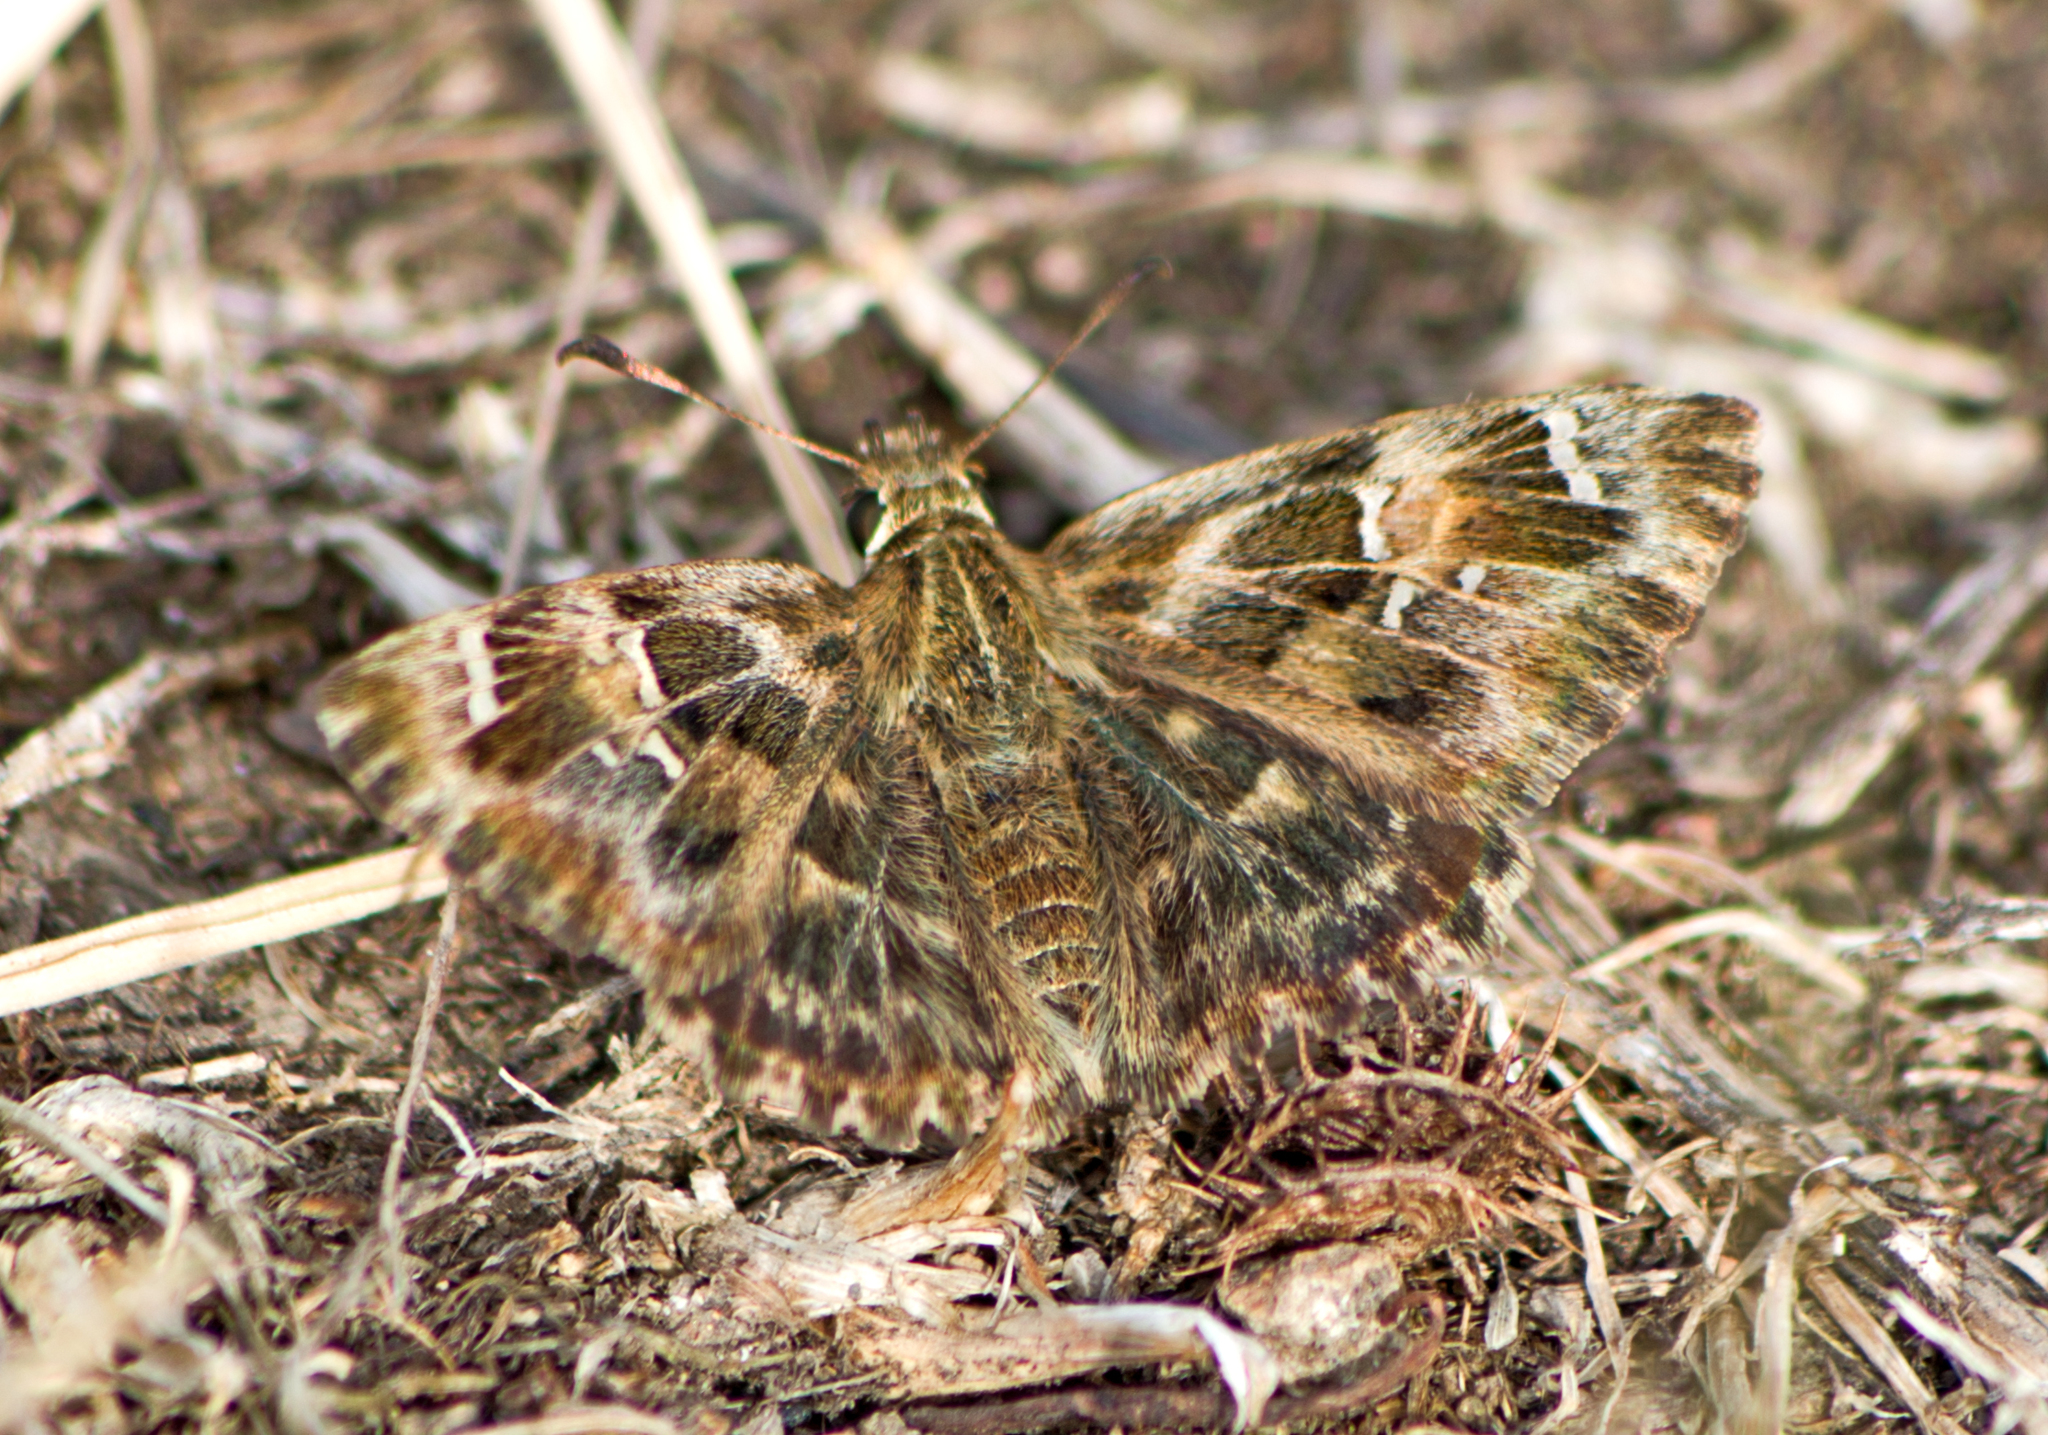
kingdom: Animalia
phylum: Arthropoda
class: Insecta
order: Lepidoptera
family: Hesperiidae
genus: Carcharodus
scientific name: Carcharodus alceae
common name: Mallow skipper
